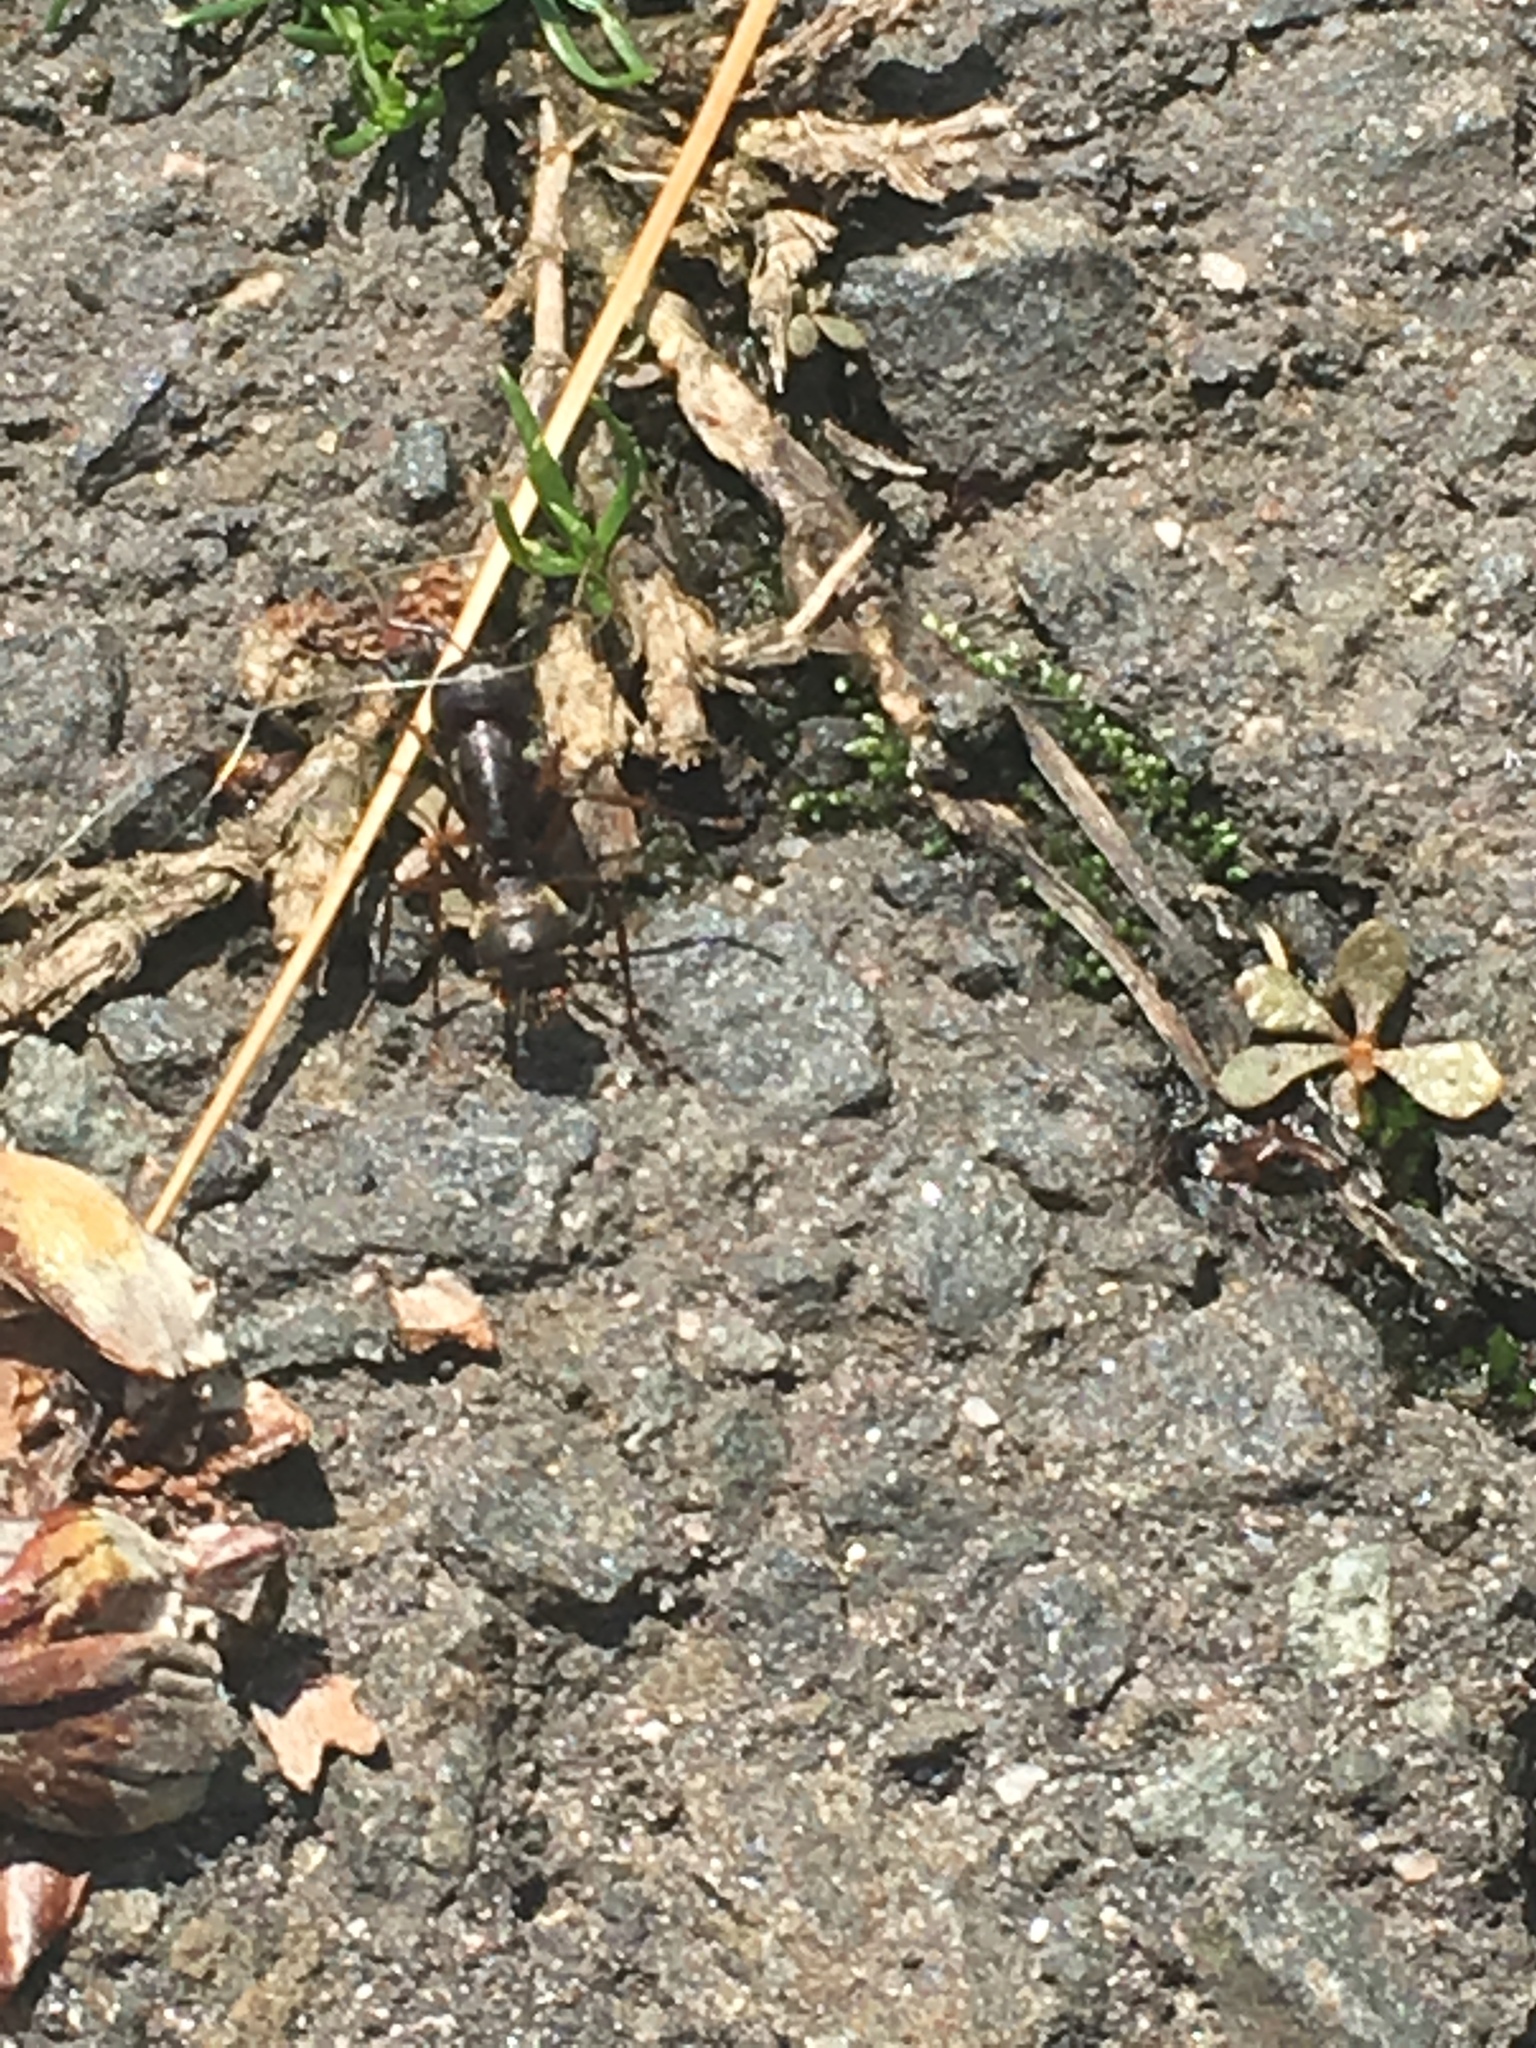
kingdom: Animalia
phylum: Arthropoda
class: Insecta
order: Hymenoptera
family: Formicidae
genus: Camponotus
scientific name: Camponotus pennsylvanicus
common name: Black carpenter ant
